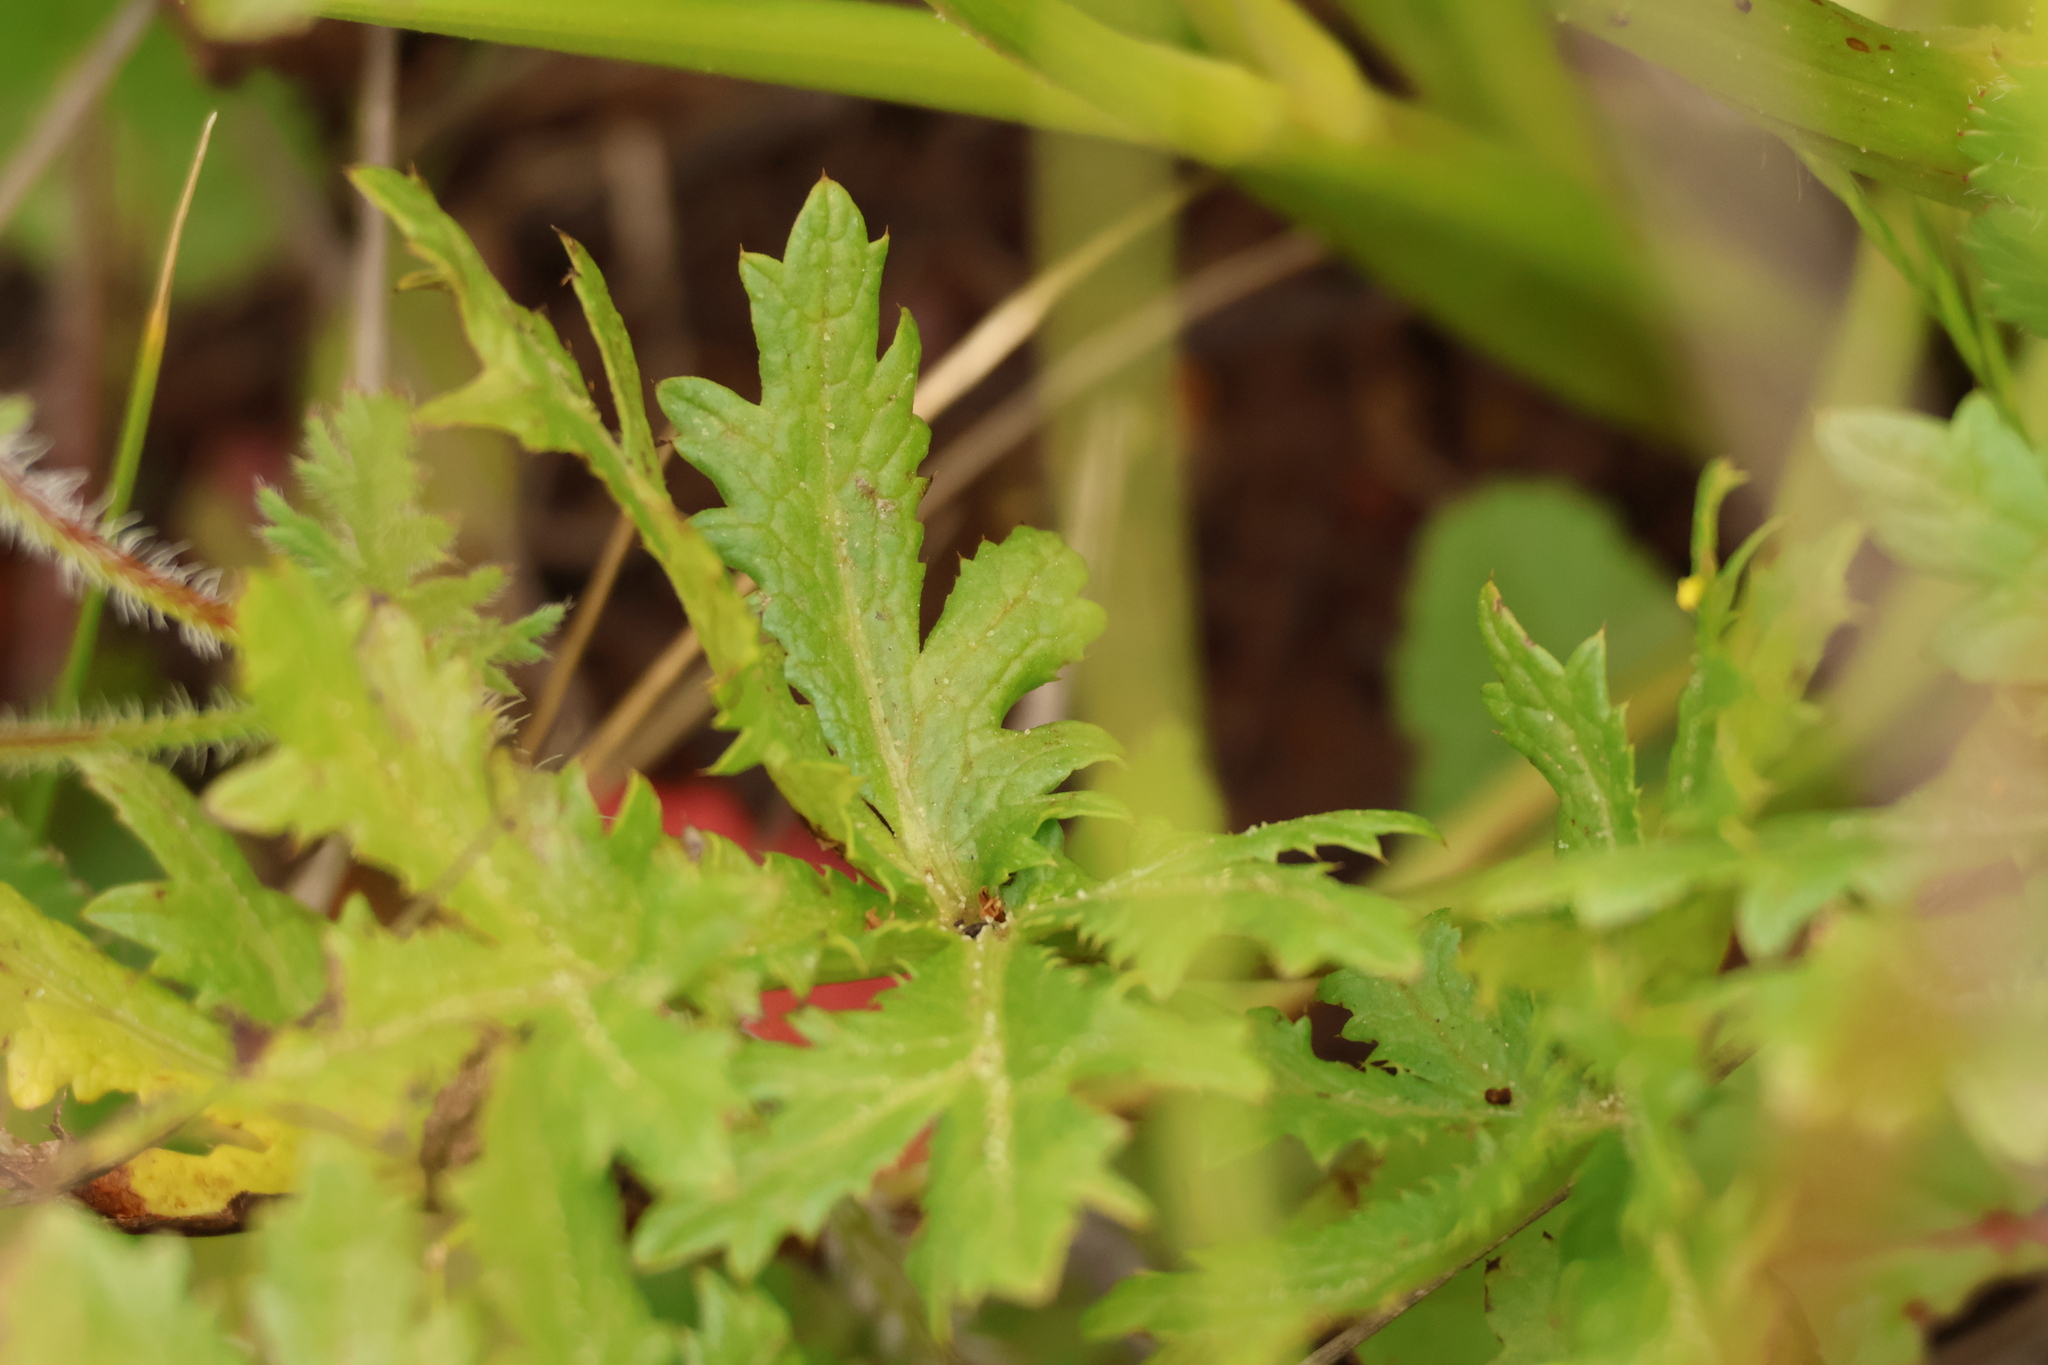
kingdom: Plantae
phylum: Tracheophyta
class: Magnoliopsida
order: Apiales
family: Apiaceae
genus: Sanicula
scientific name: Sanicula arguta
